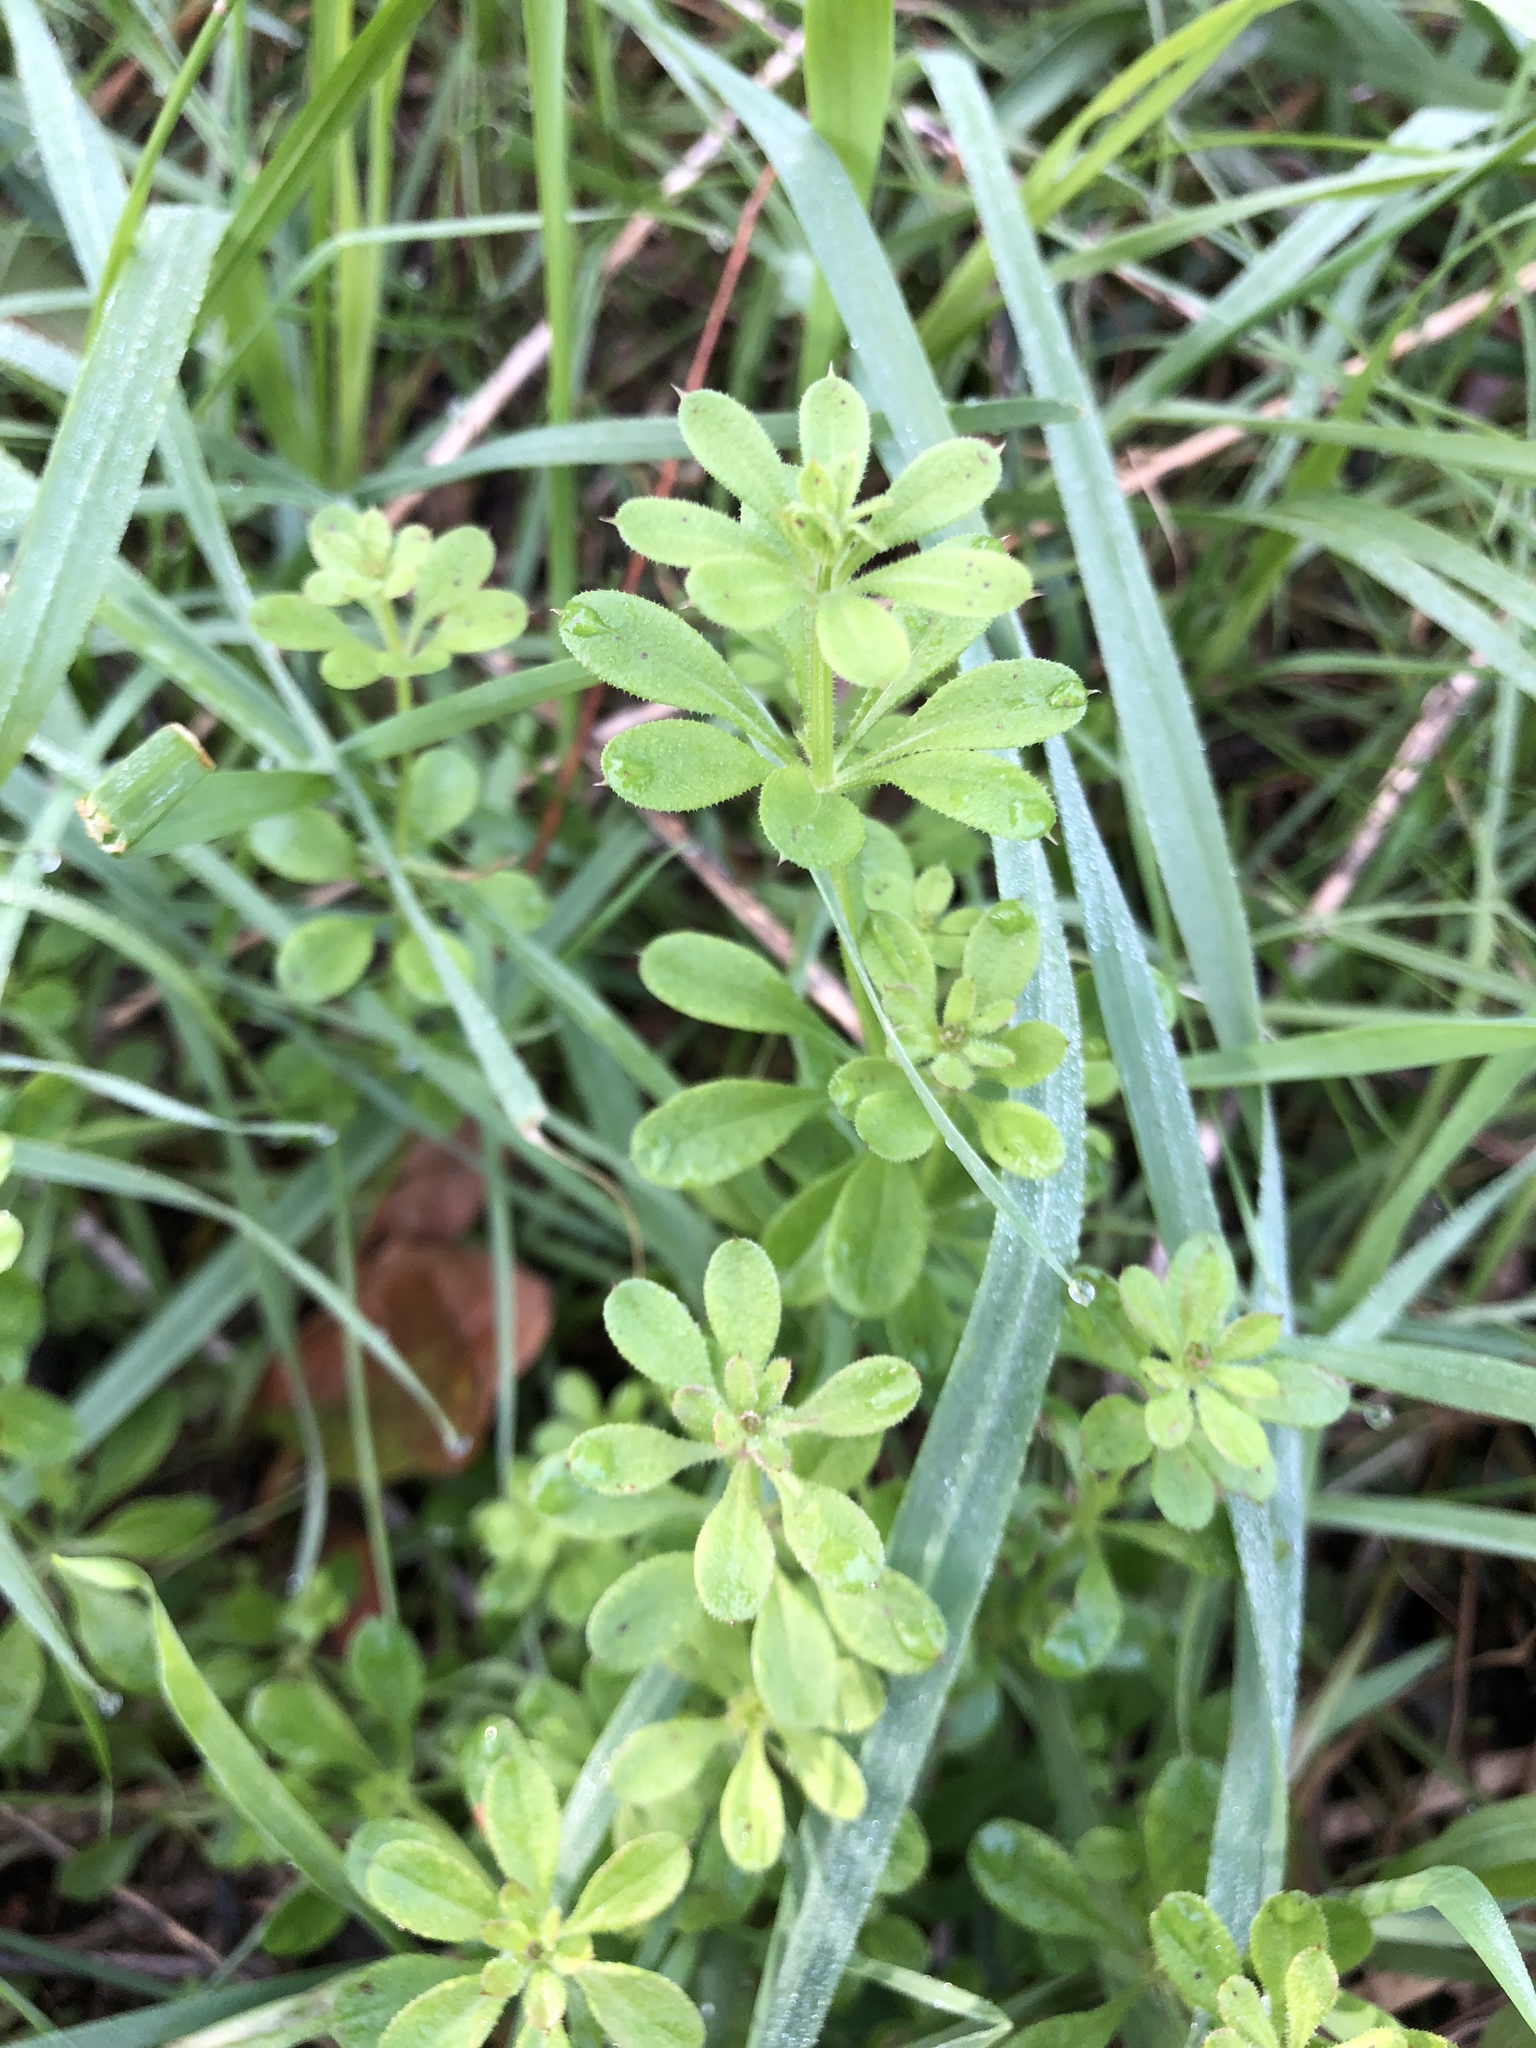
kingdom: Plantae
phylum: Tracheophyta
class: Magnoliopsida
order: Gentianales
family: Rubiaceae
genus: Galium
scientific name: Galium aparine
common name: Cleavers
